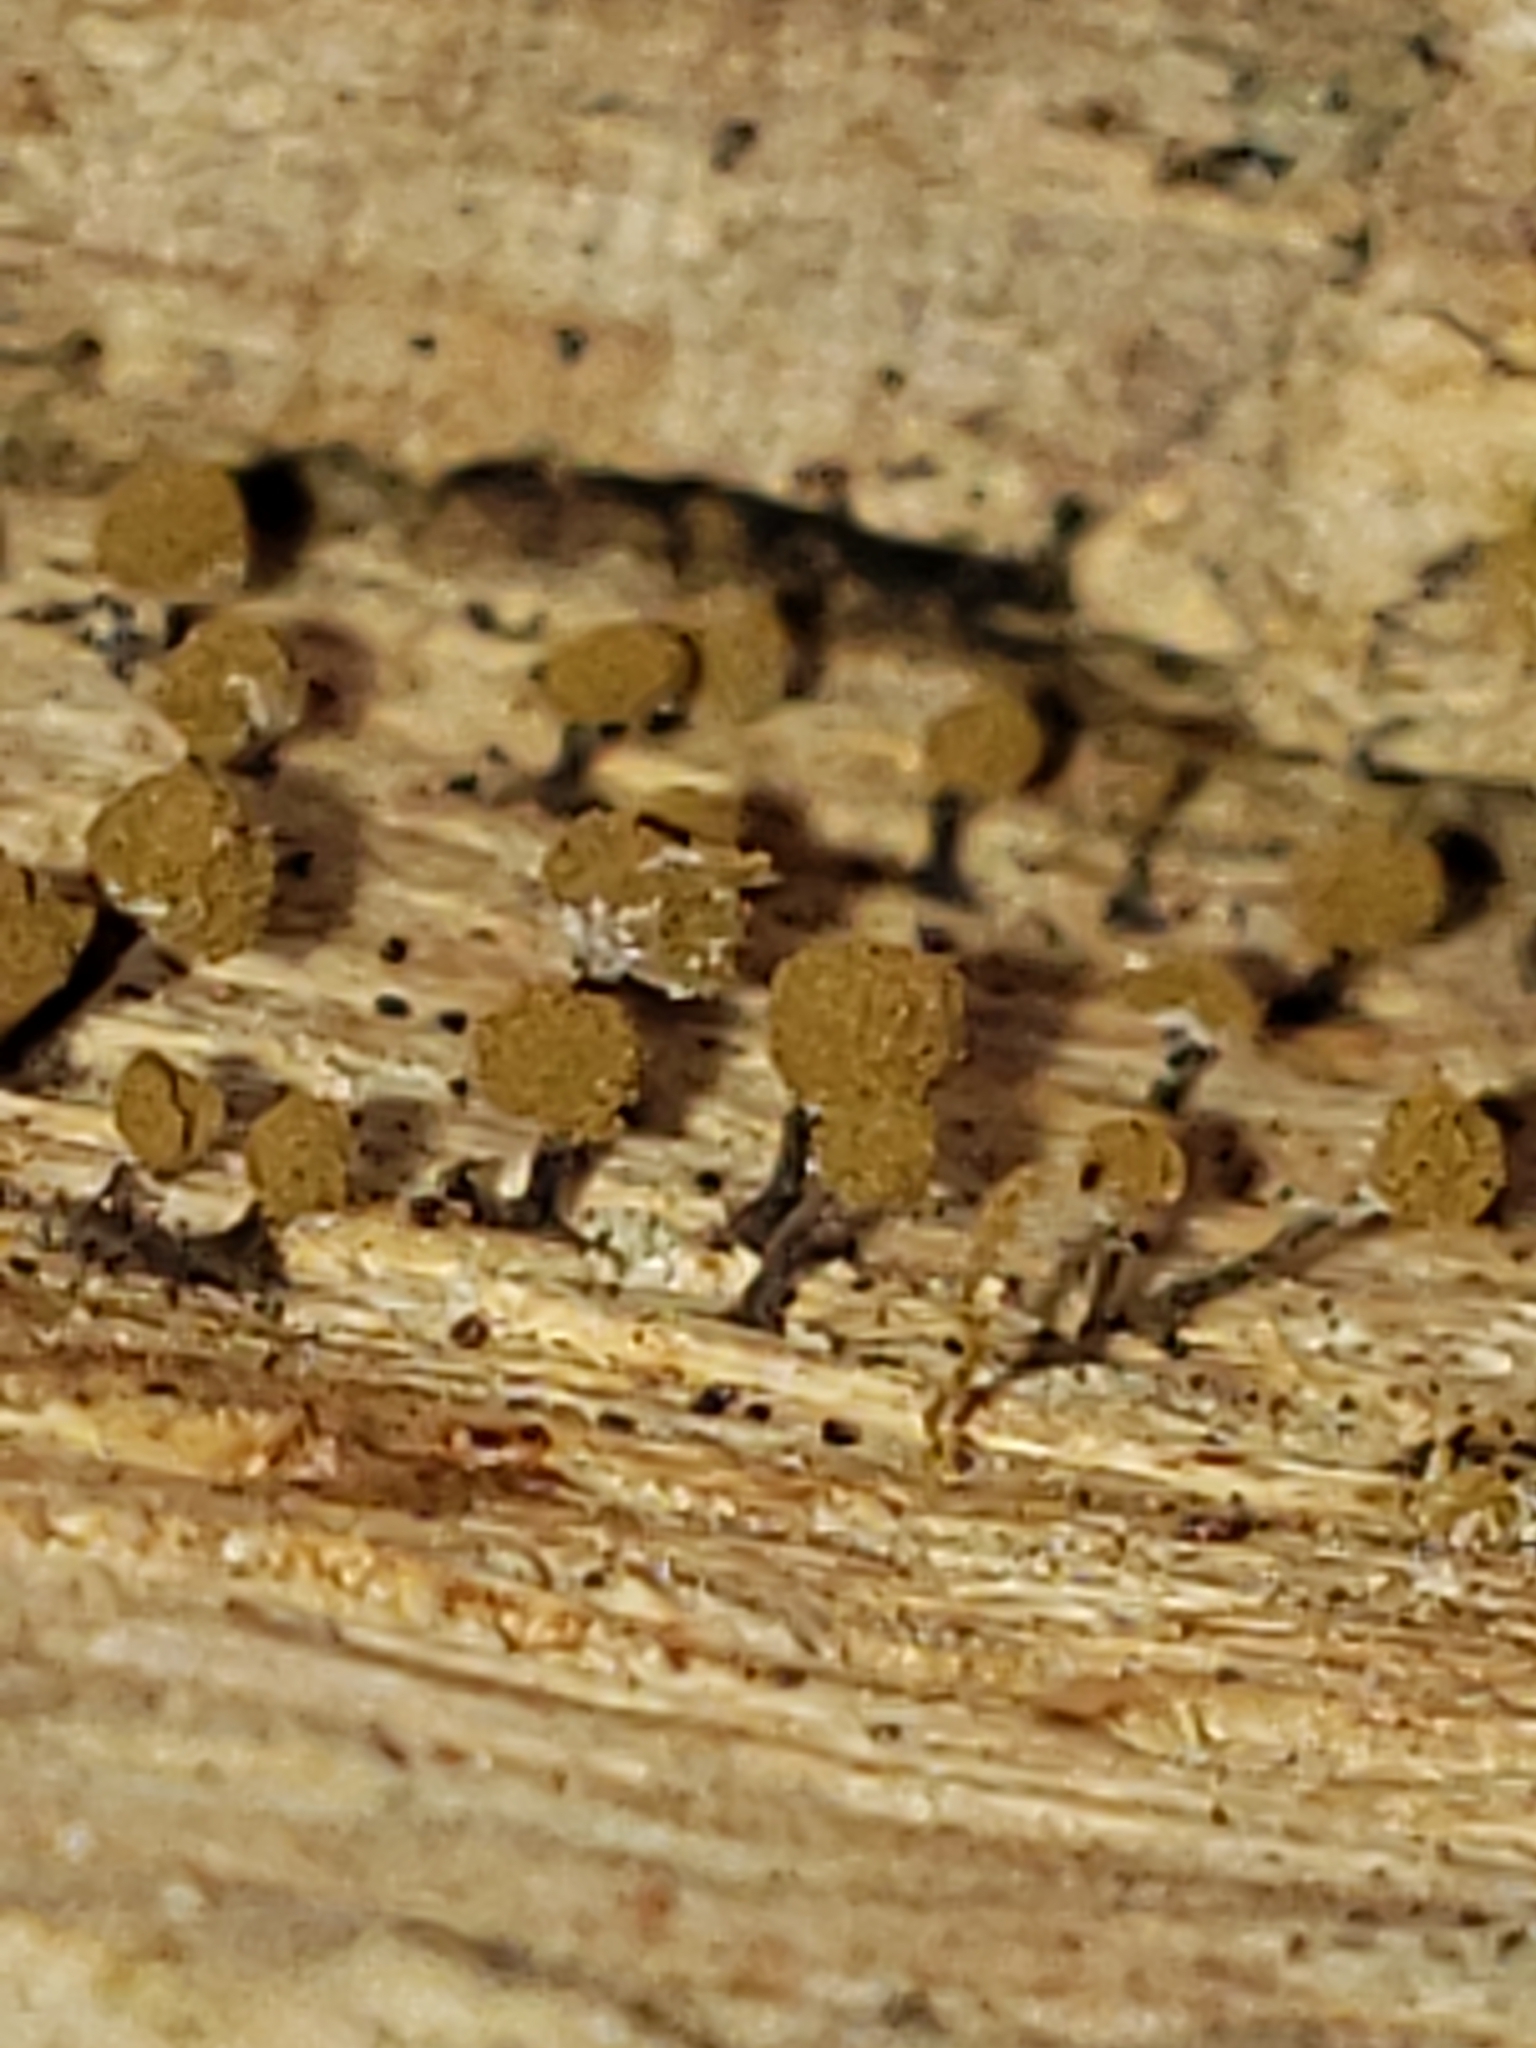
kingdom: Fungi
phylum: Basidiomycota
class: Atractiellomycetes
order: Atractiellales
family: Phleogenaceae
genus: Phleogena
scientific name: Phleogena faginea
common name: Fenugreek stalkball
